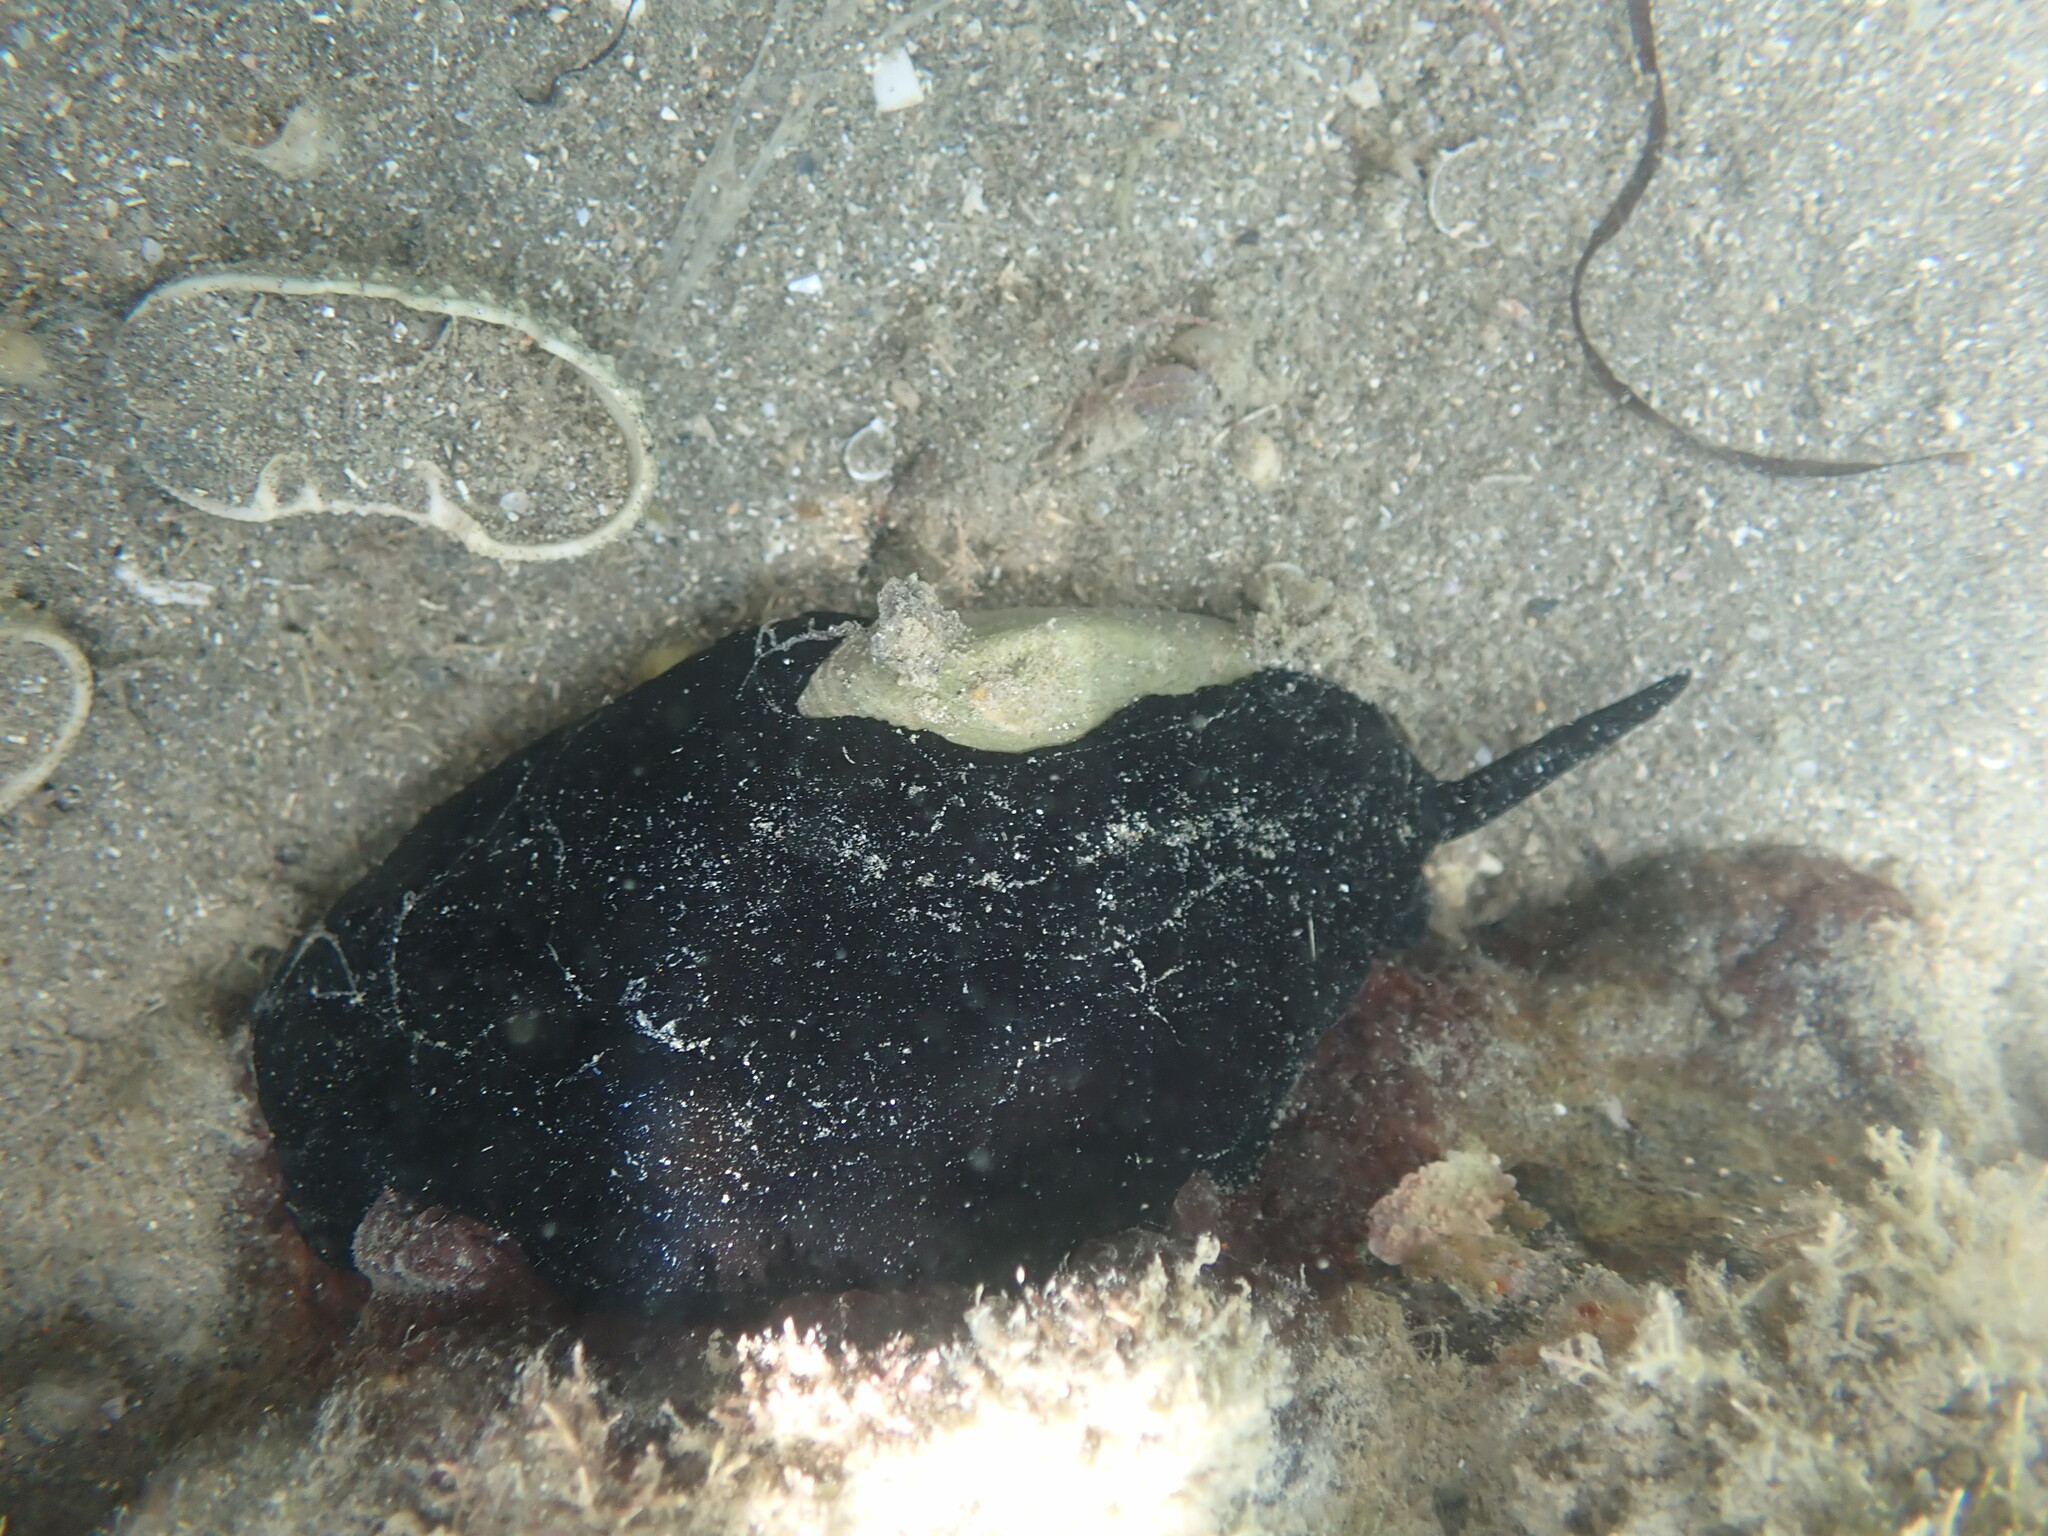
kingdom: Animalia
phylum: Mollusca
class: Gastropoda
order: Lepetellida
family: Fissurellidae
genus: Scutus
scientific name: Scutus breviculus
